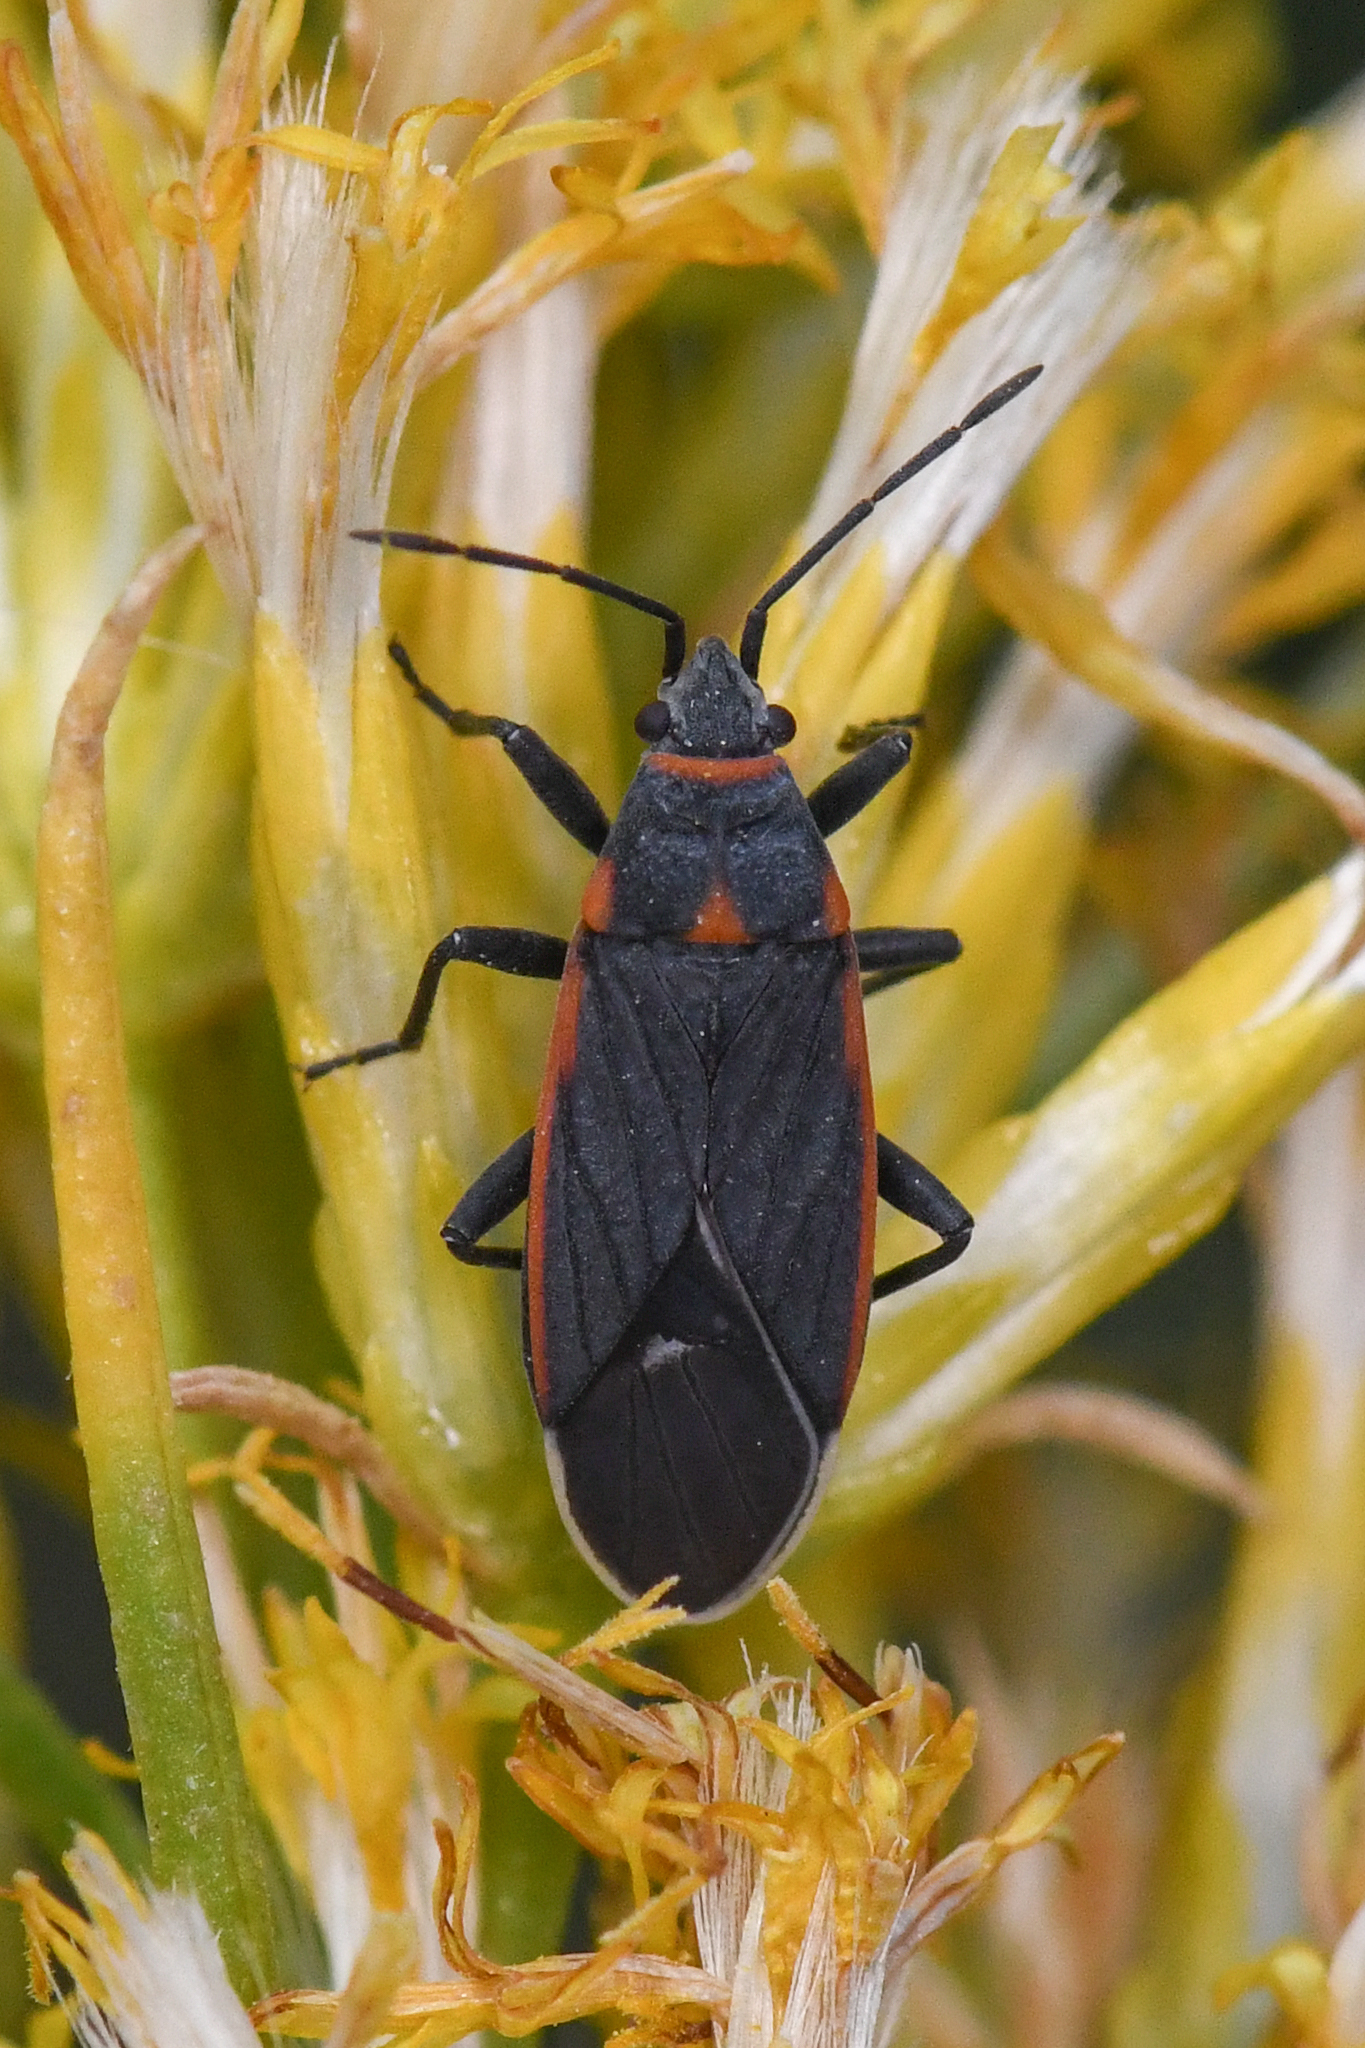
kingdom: Animalia
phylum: Arthropoda
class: Insecta
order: Hemiptera
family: Lygaeidae
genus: Melacoryphus
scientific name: Melacoryphus lateralis
